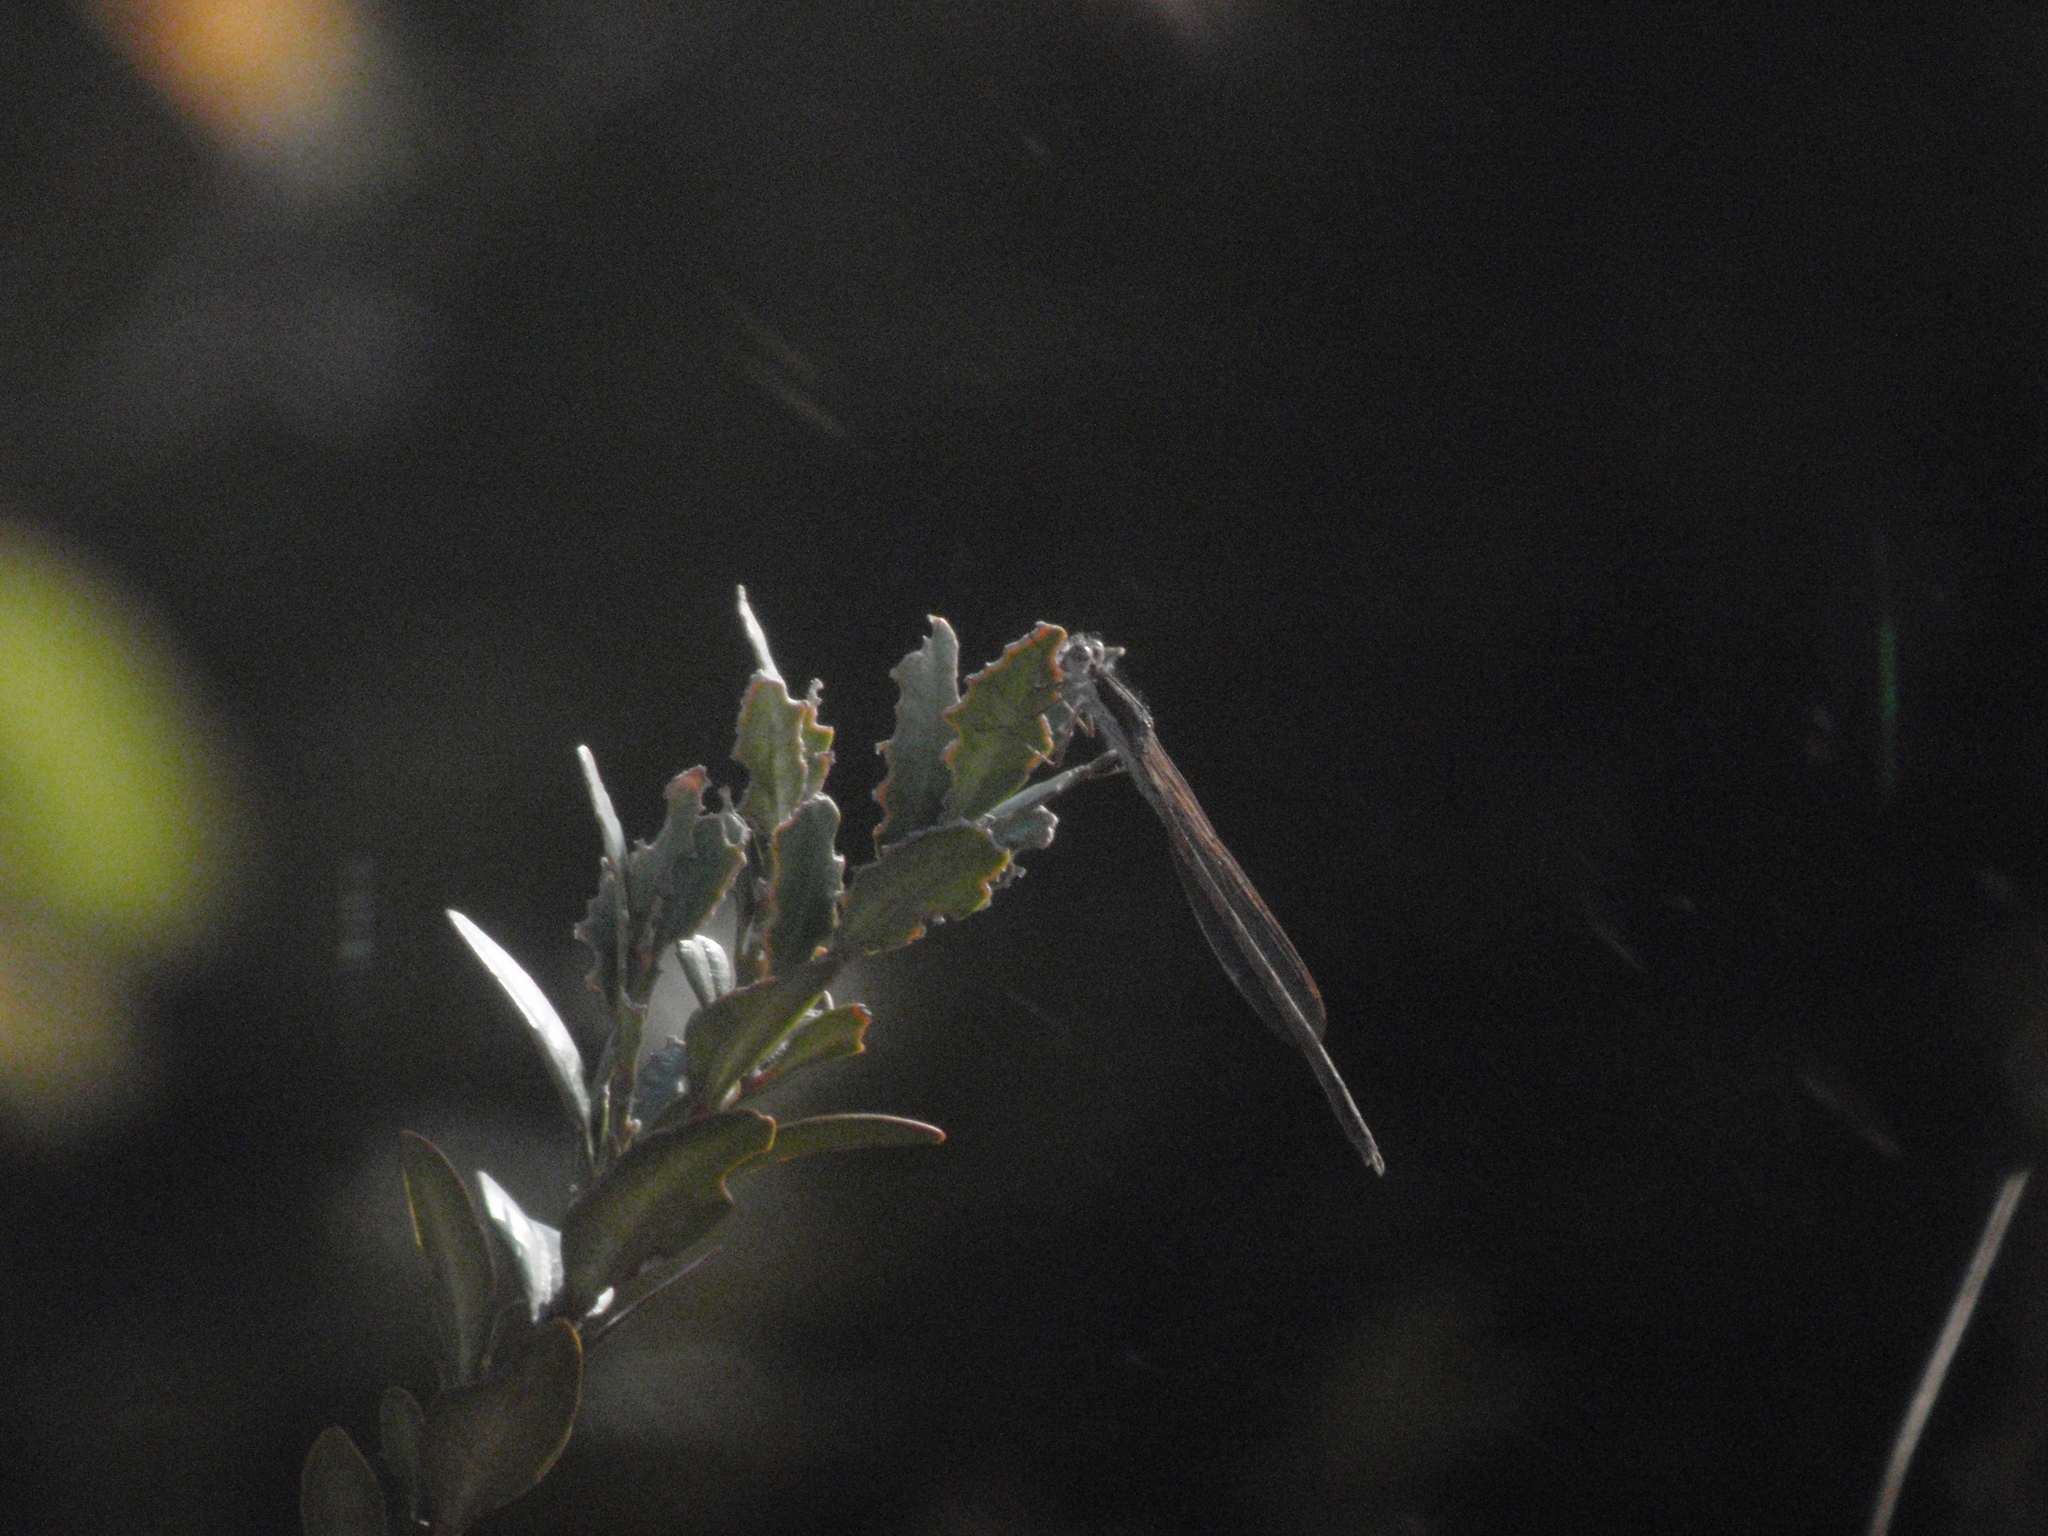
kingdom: Animalia
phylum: Arthropoda
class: Insecta
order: Odonata
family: Lestidae
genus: Sympecma
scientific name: Sympecma fusca
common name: Common winter damsel
